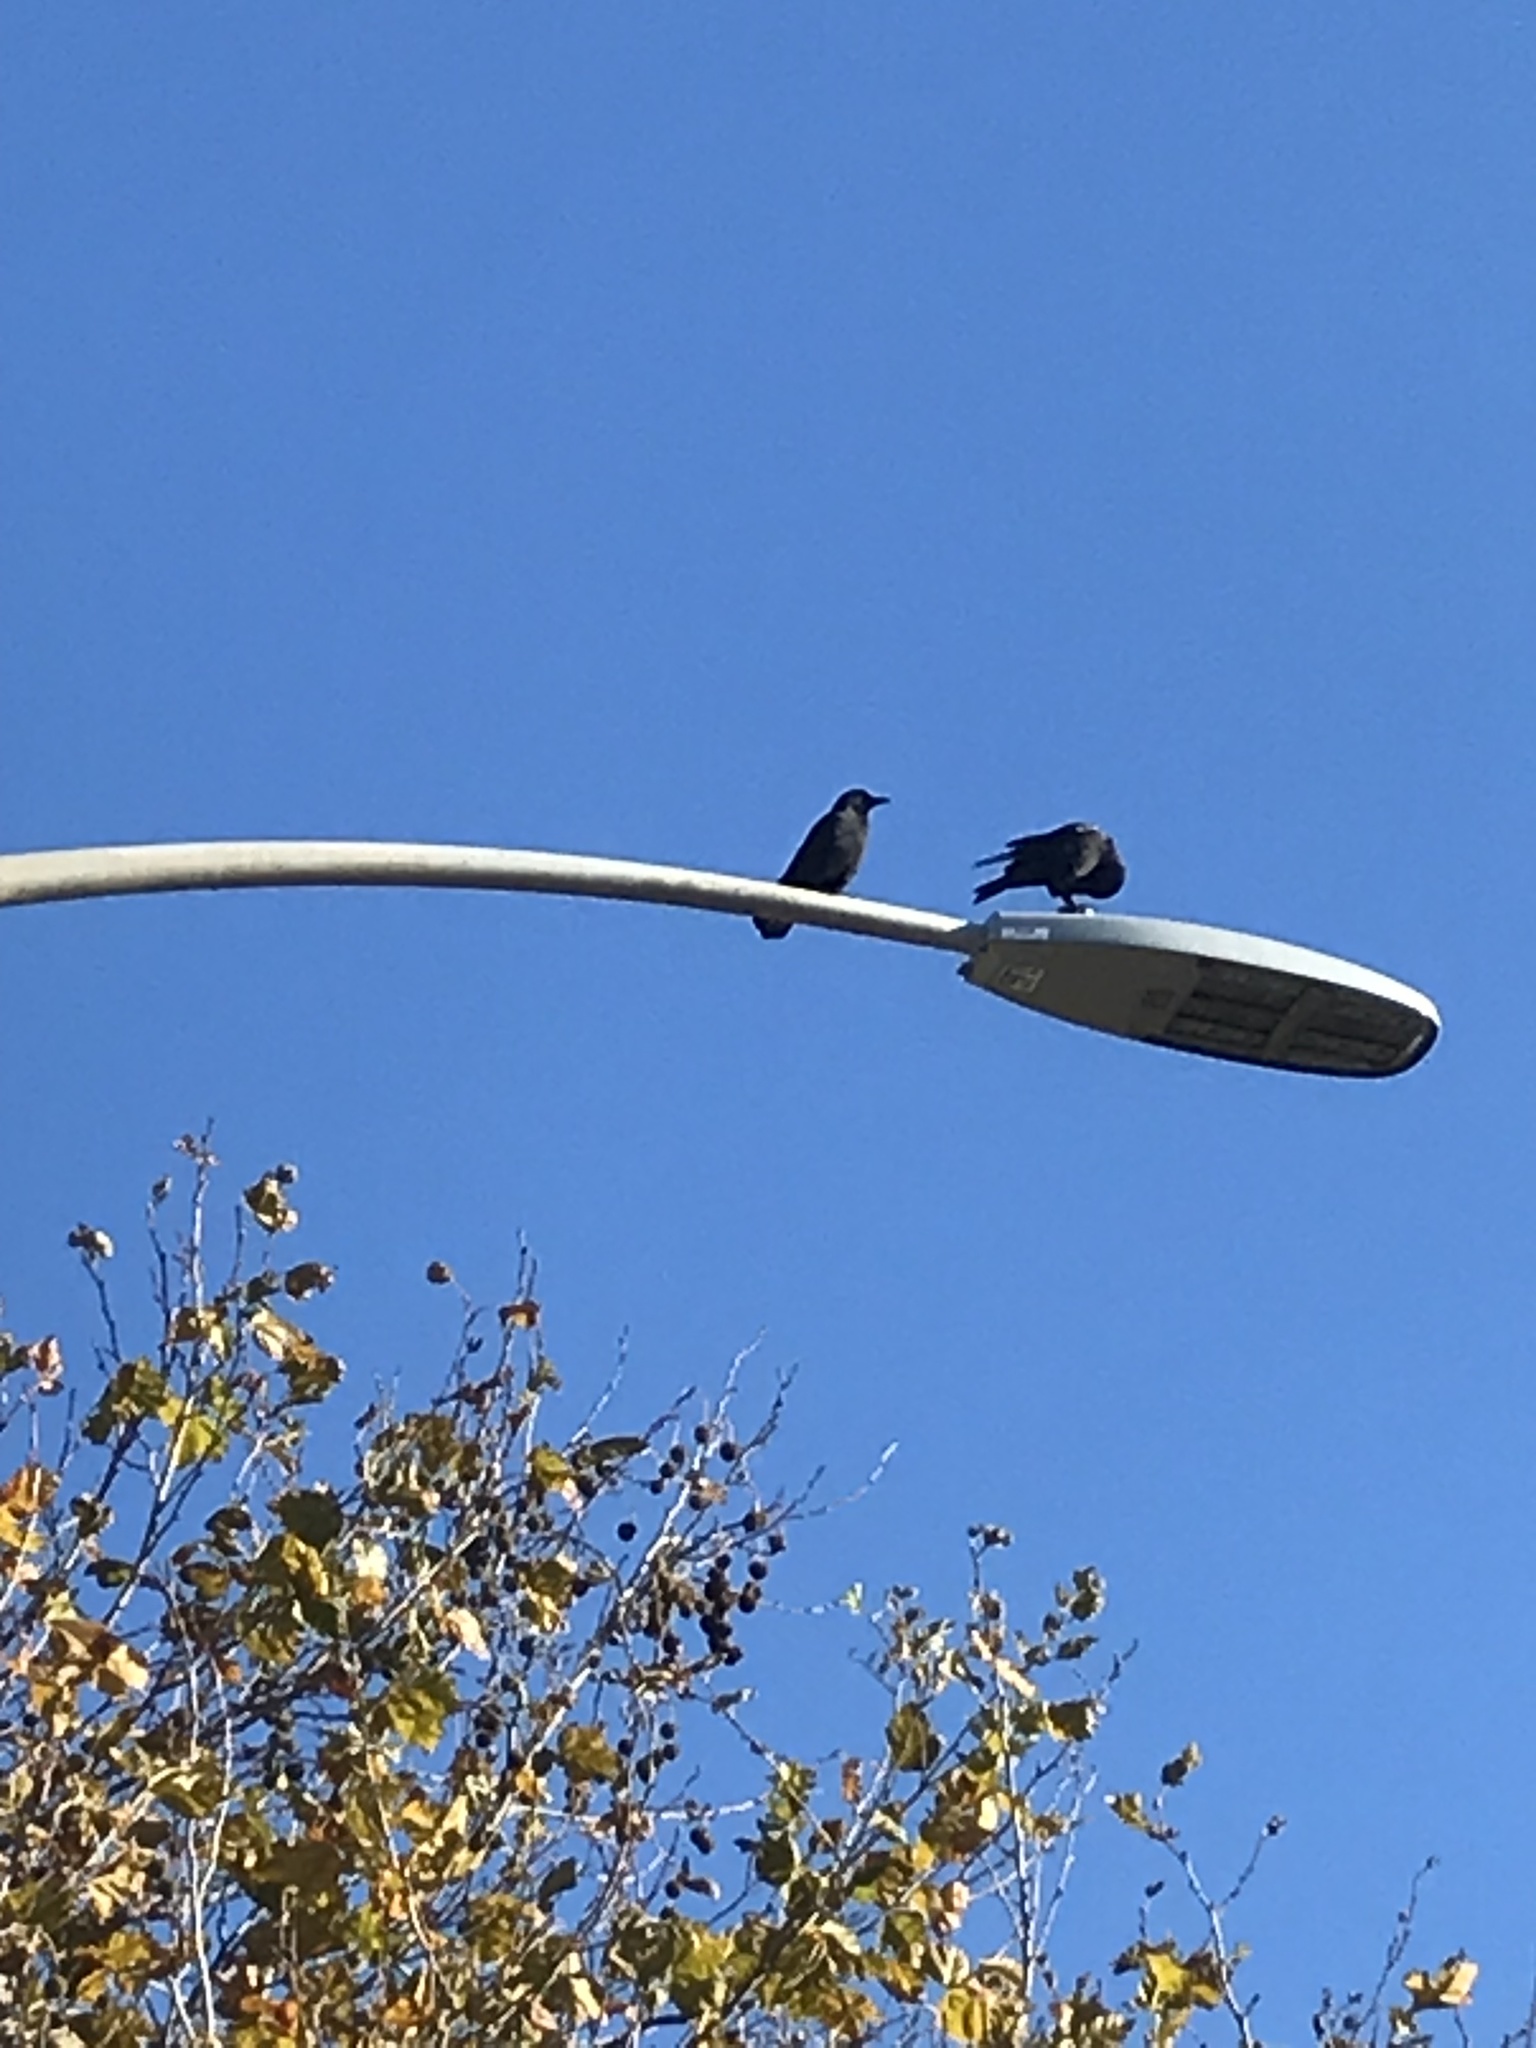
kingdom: Animalia
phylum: Chordata
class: Aves
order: Passeriformes
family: Corvidae
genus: Corvus
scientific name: Corvus brachyrhynchos
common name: American crow
